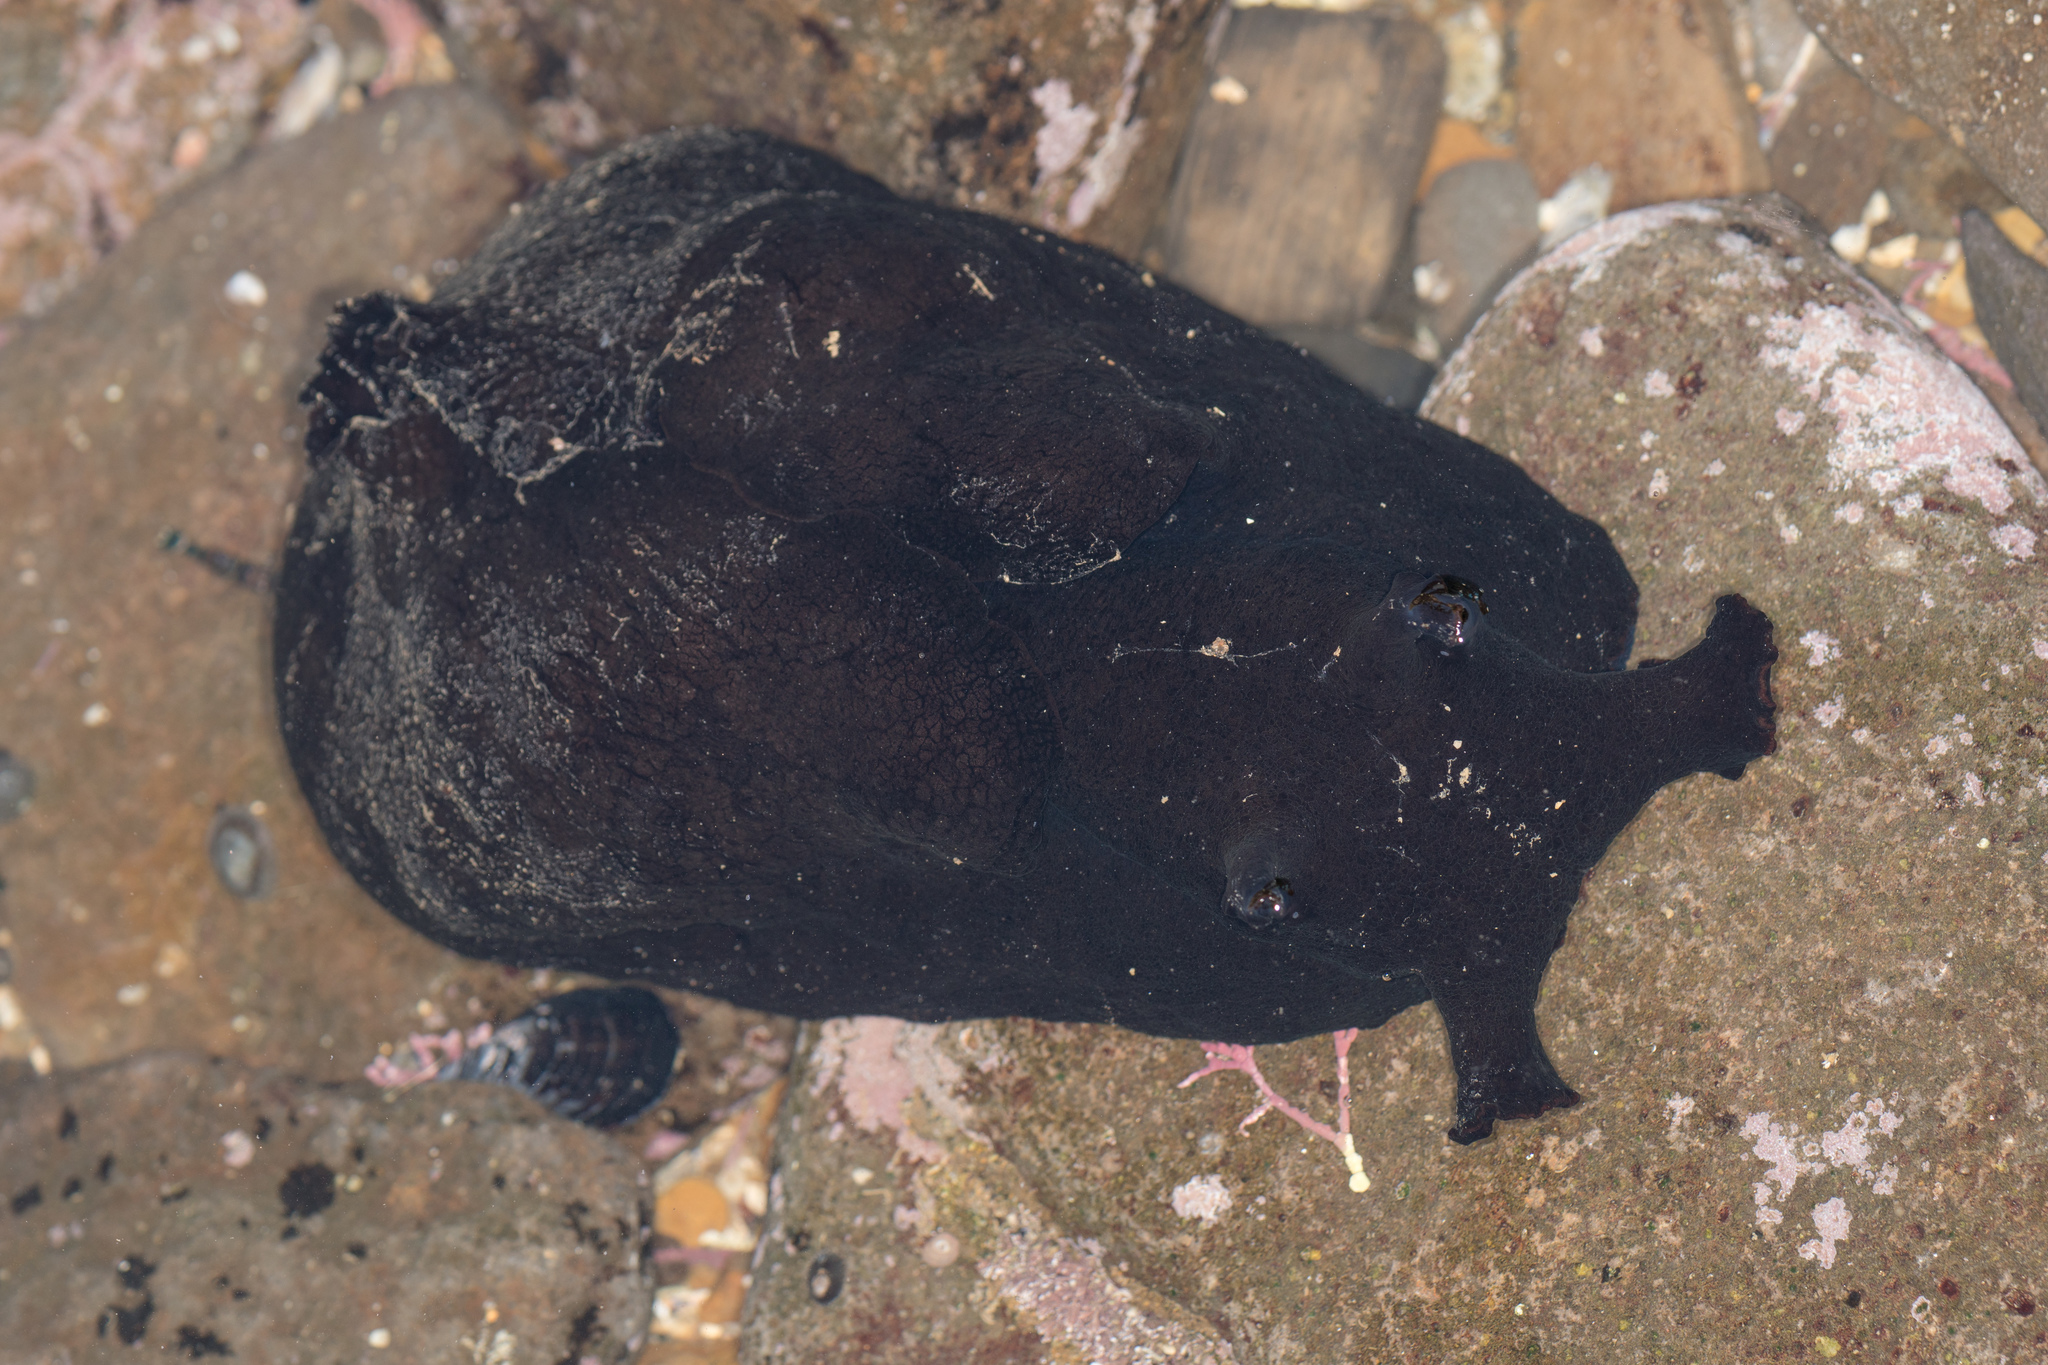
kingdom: Animalia
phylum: Mollusca
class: Gastropoda
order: Aplysiida
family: Aplysiidae
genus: Aplysia
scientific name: Aplysia vaccaria
